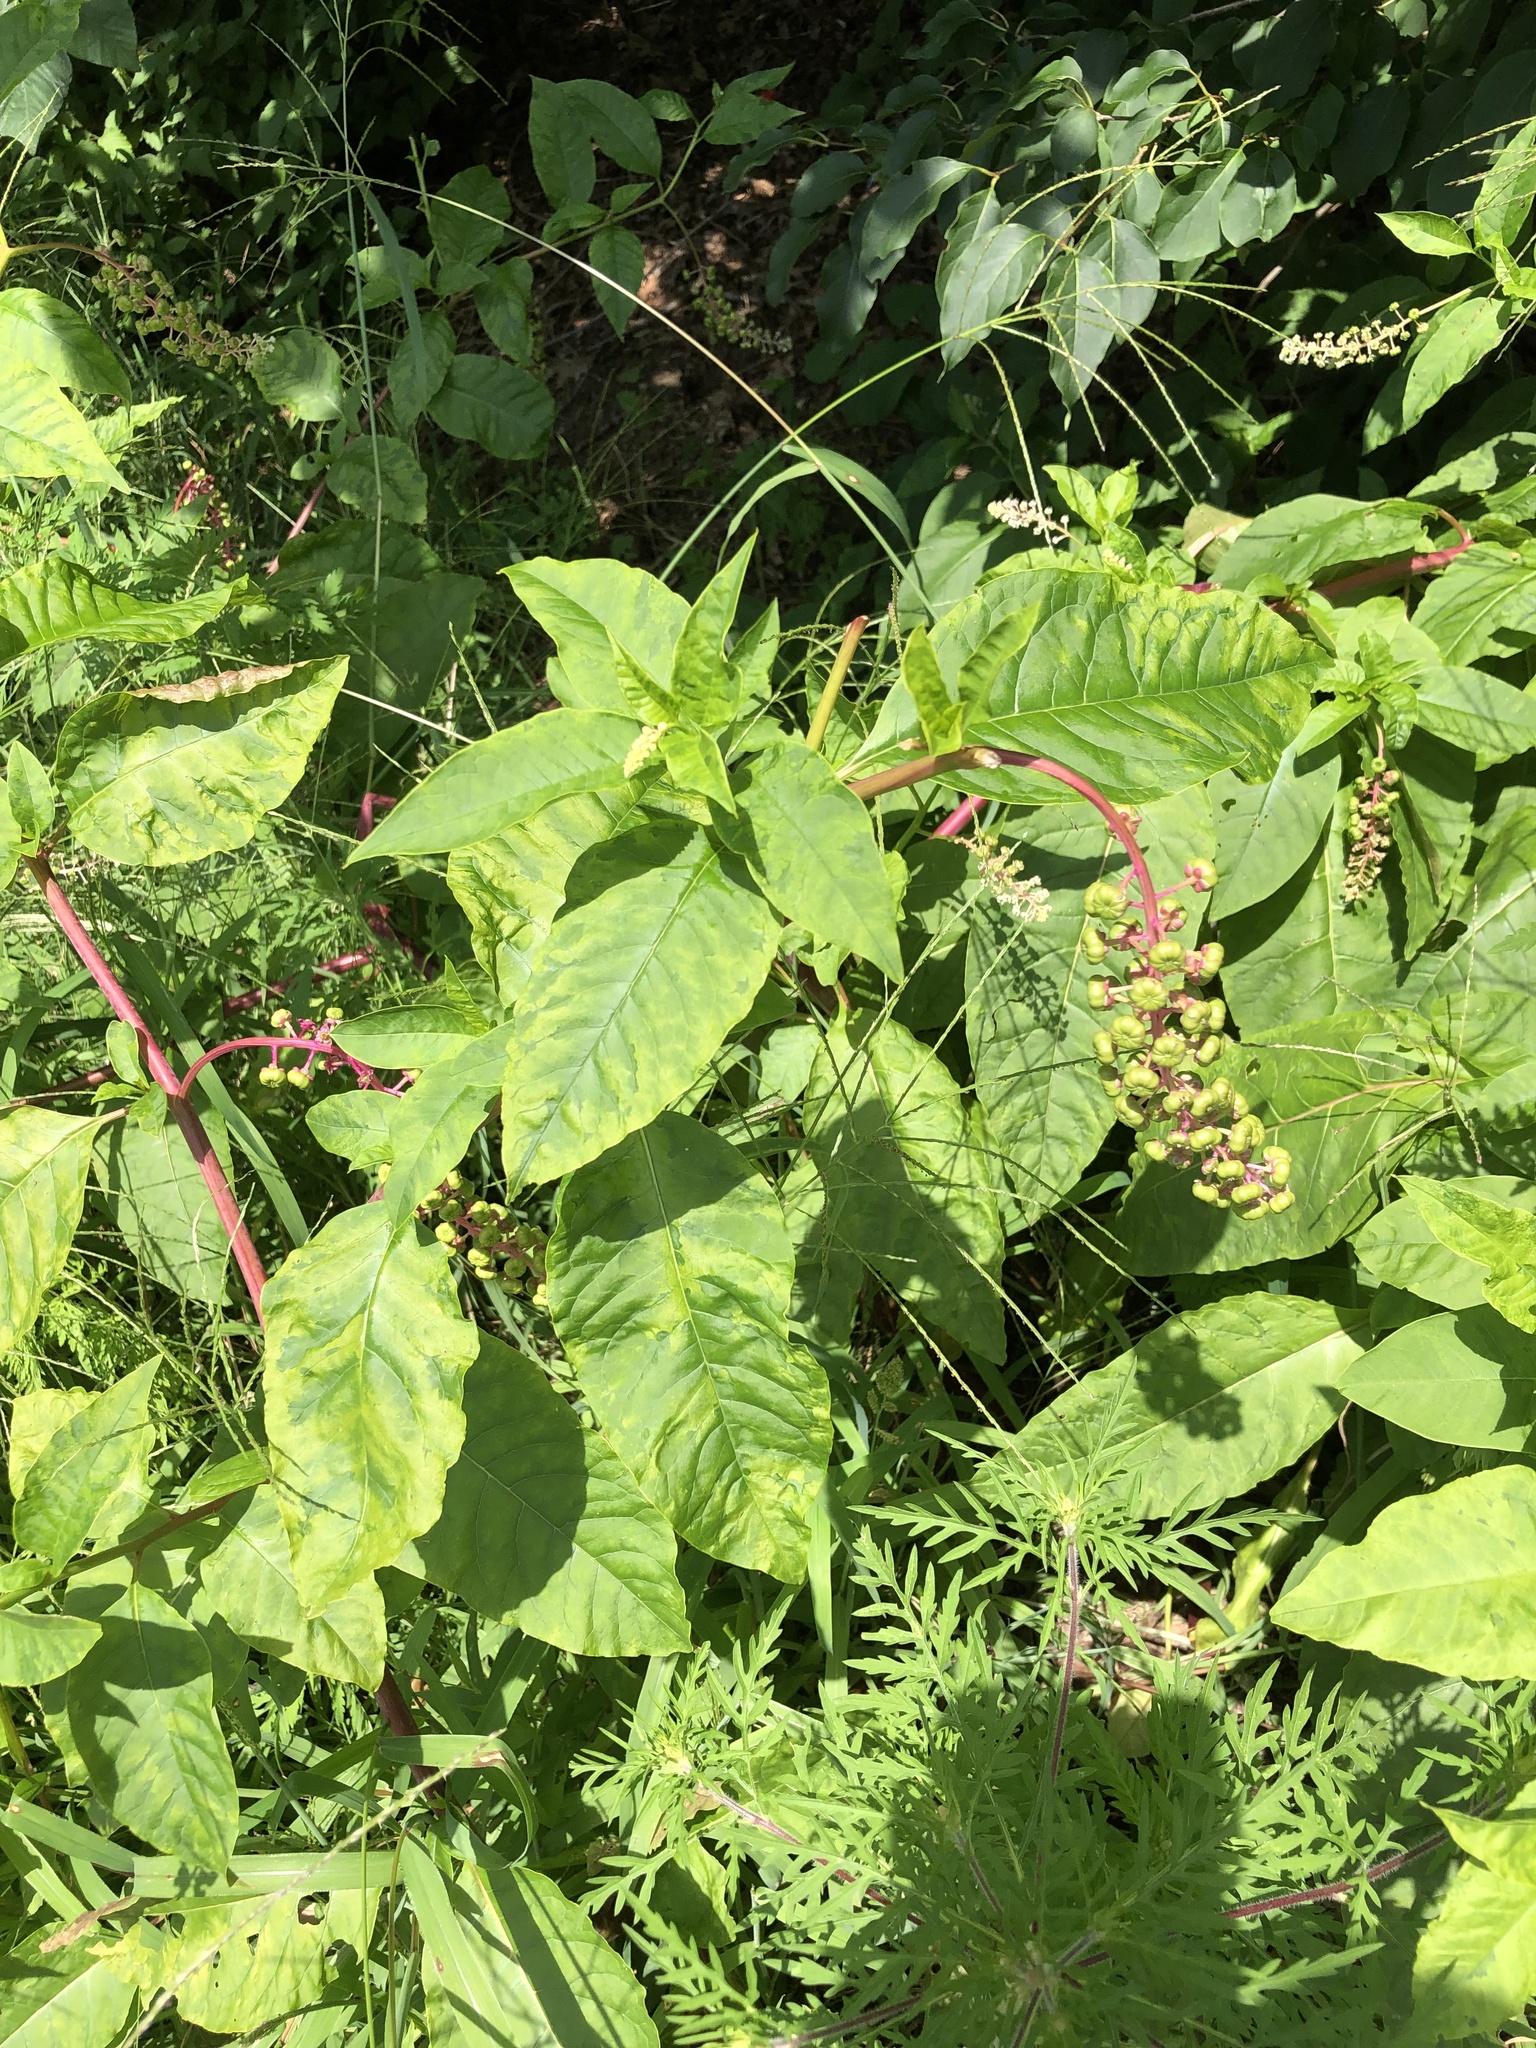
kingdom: Viruses
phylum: Pisuviricota
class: Stelpaviricetes
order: Patatavirales
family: Potyviridae
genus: Potyvirus
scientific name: Potyvirus Pokeweed mosaic virus
